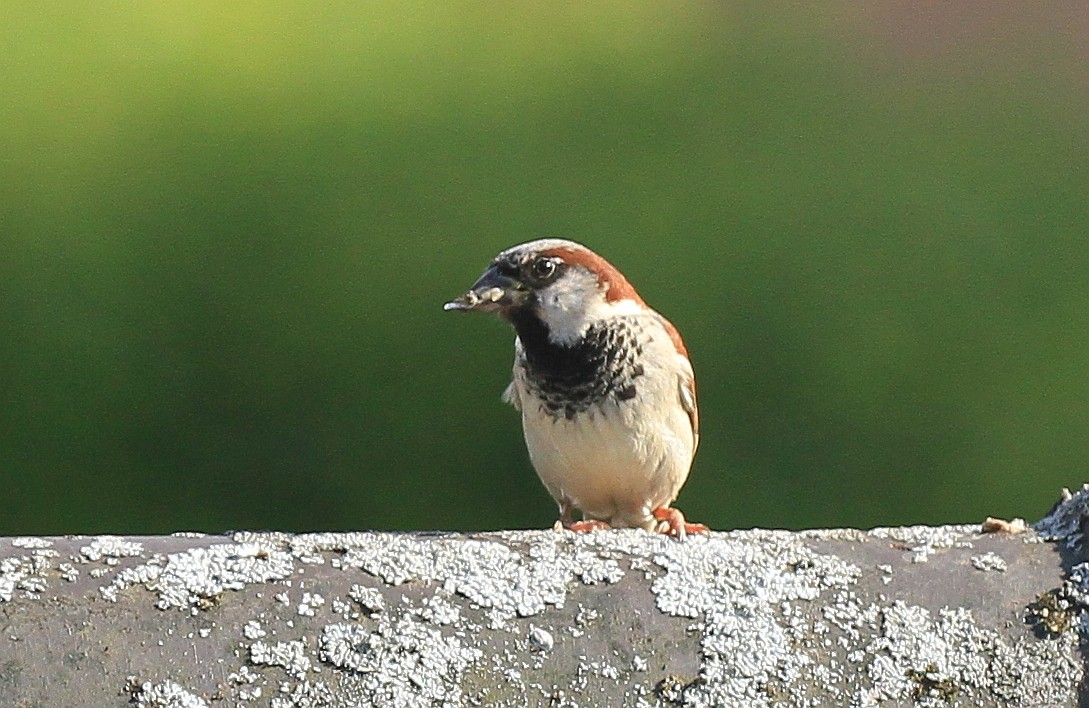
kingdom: Animalia
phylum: Chordata
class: Aves
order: Passeriformes
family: Passeridae
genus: Passer
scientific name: Passer domesticus
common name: House sparrow
